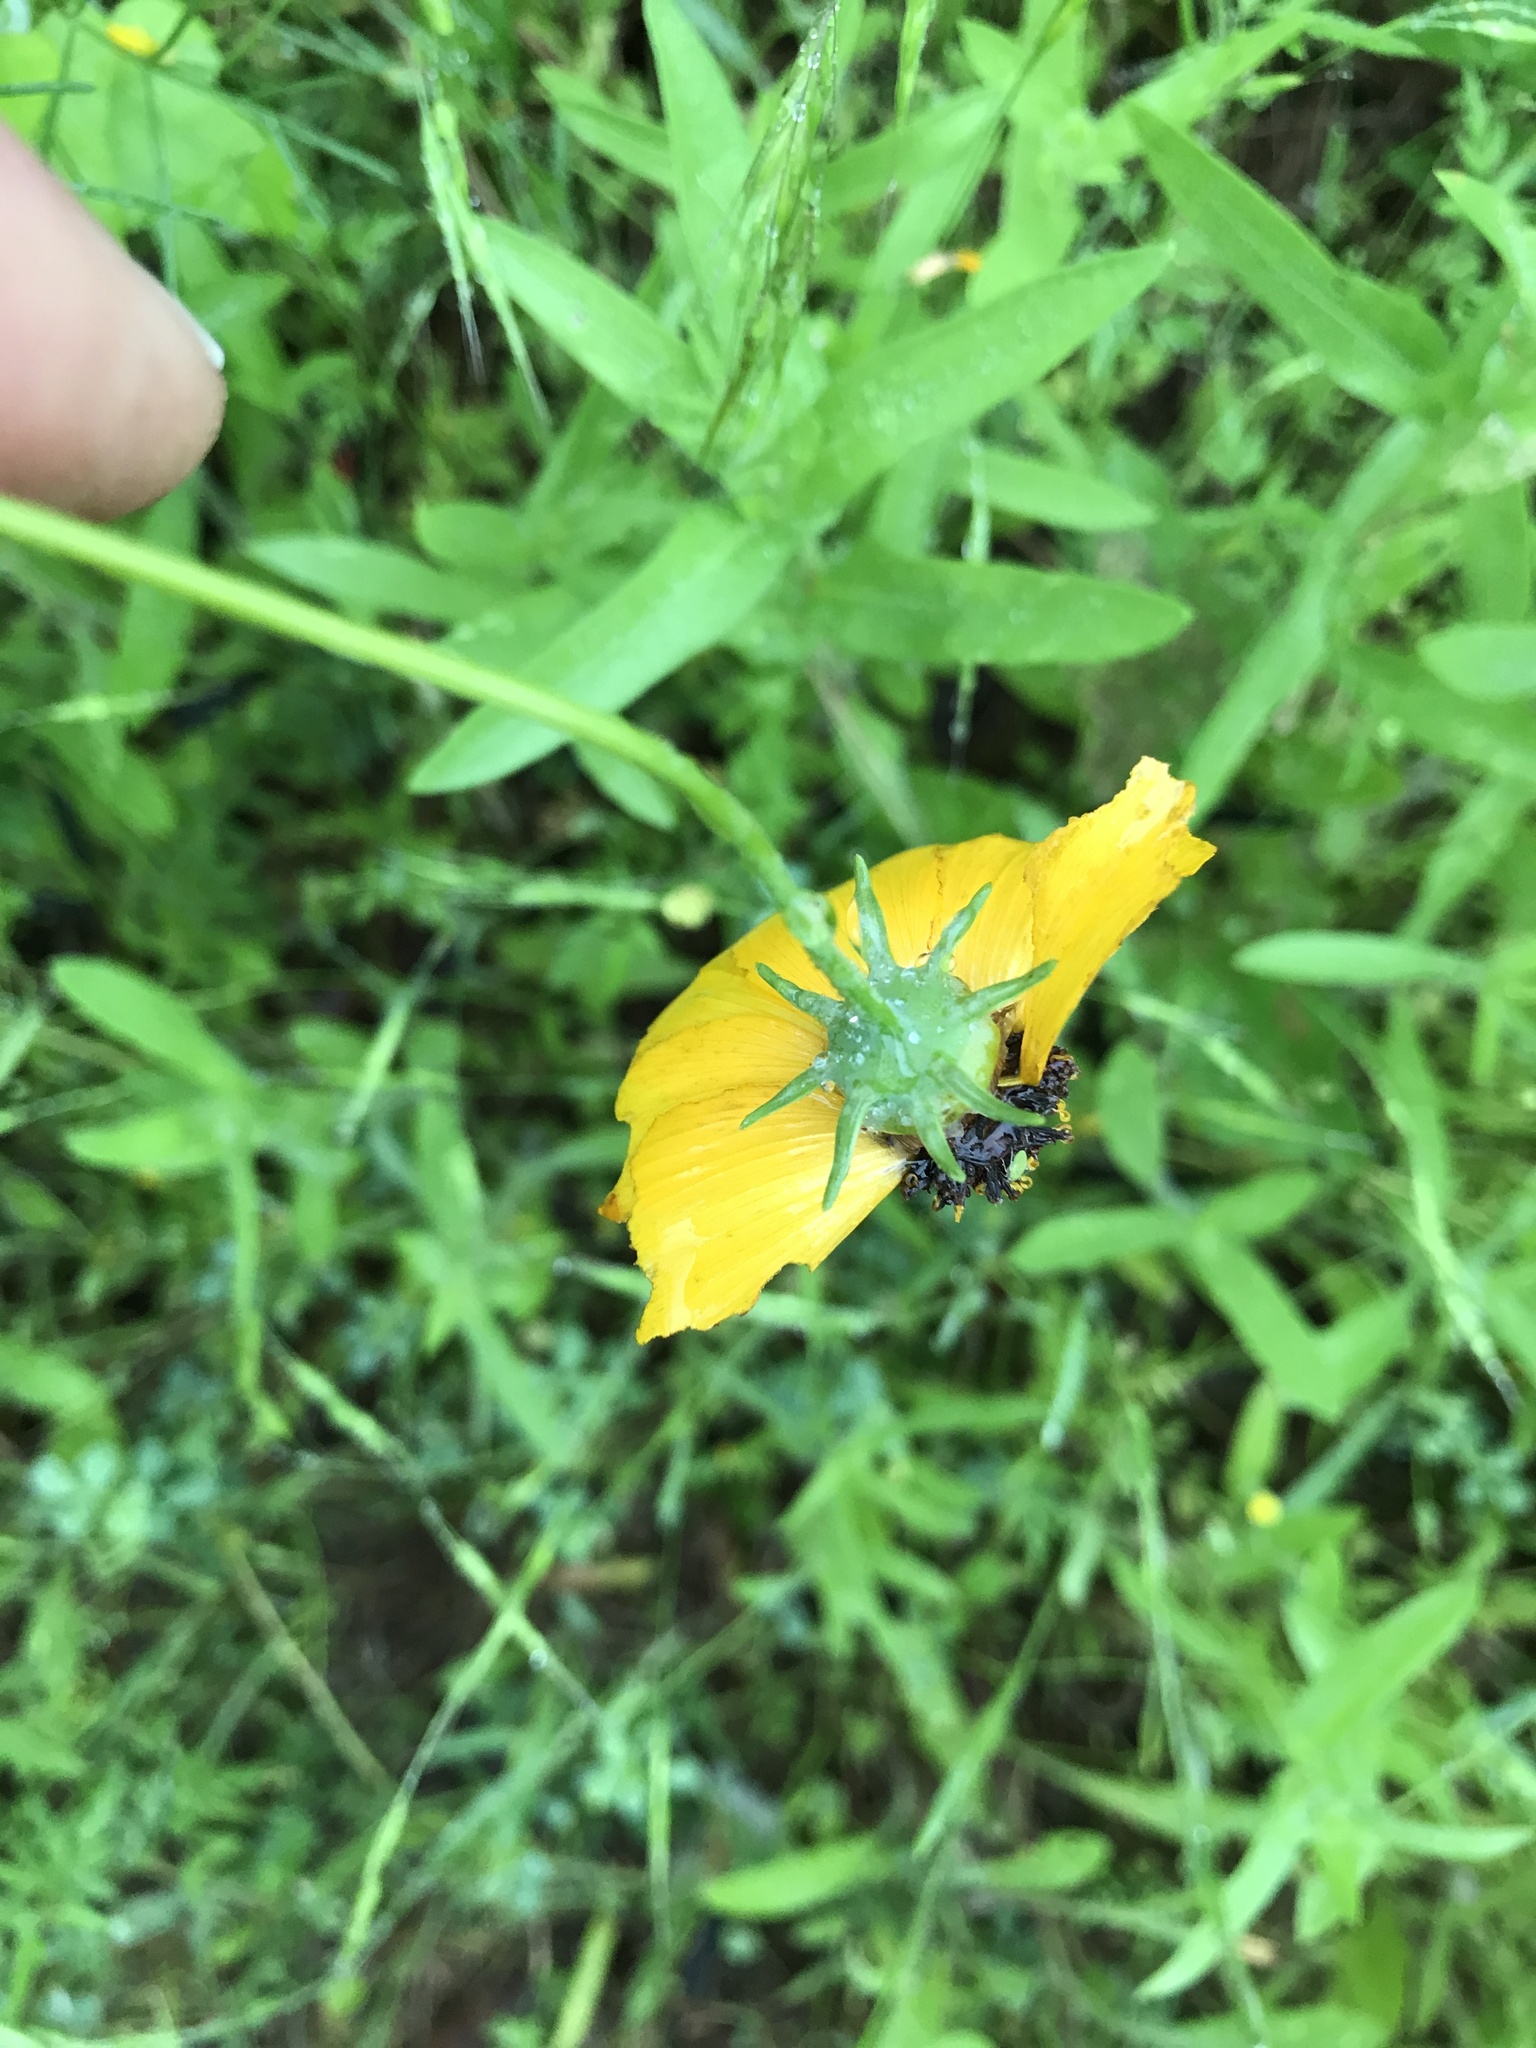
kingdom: Plantae
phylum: Tracheophyta
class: Magnoliopsida
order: Asterales
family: Asteraceae
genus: Thelesperma
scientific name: Thelesperma filifolium
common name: Stiff greenthread
